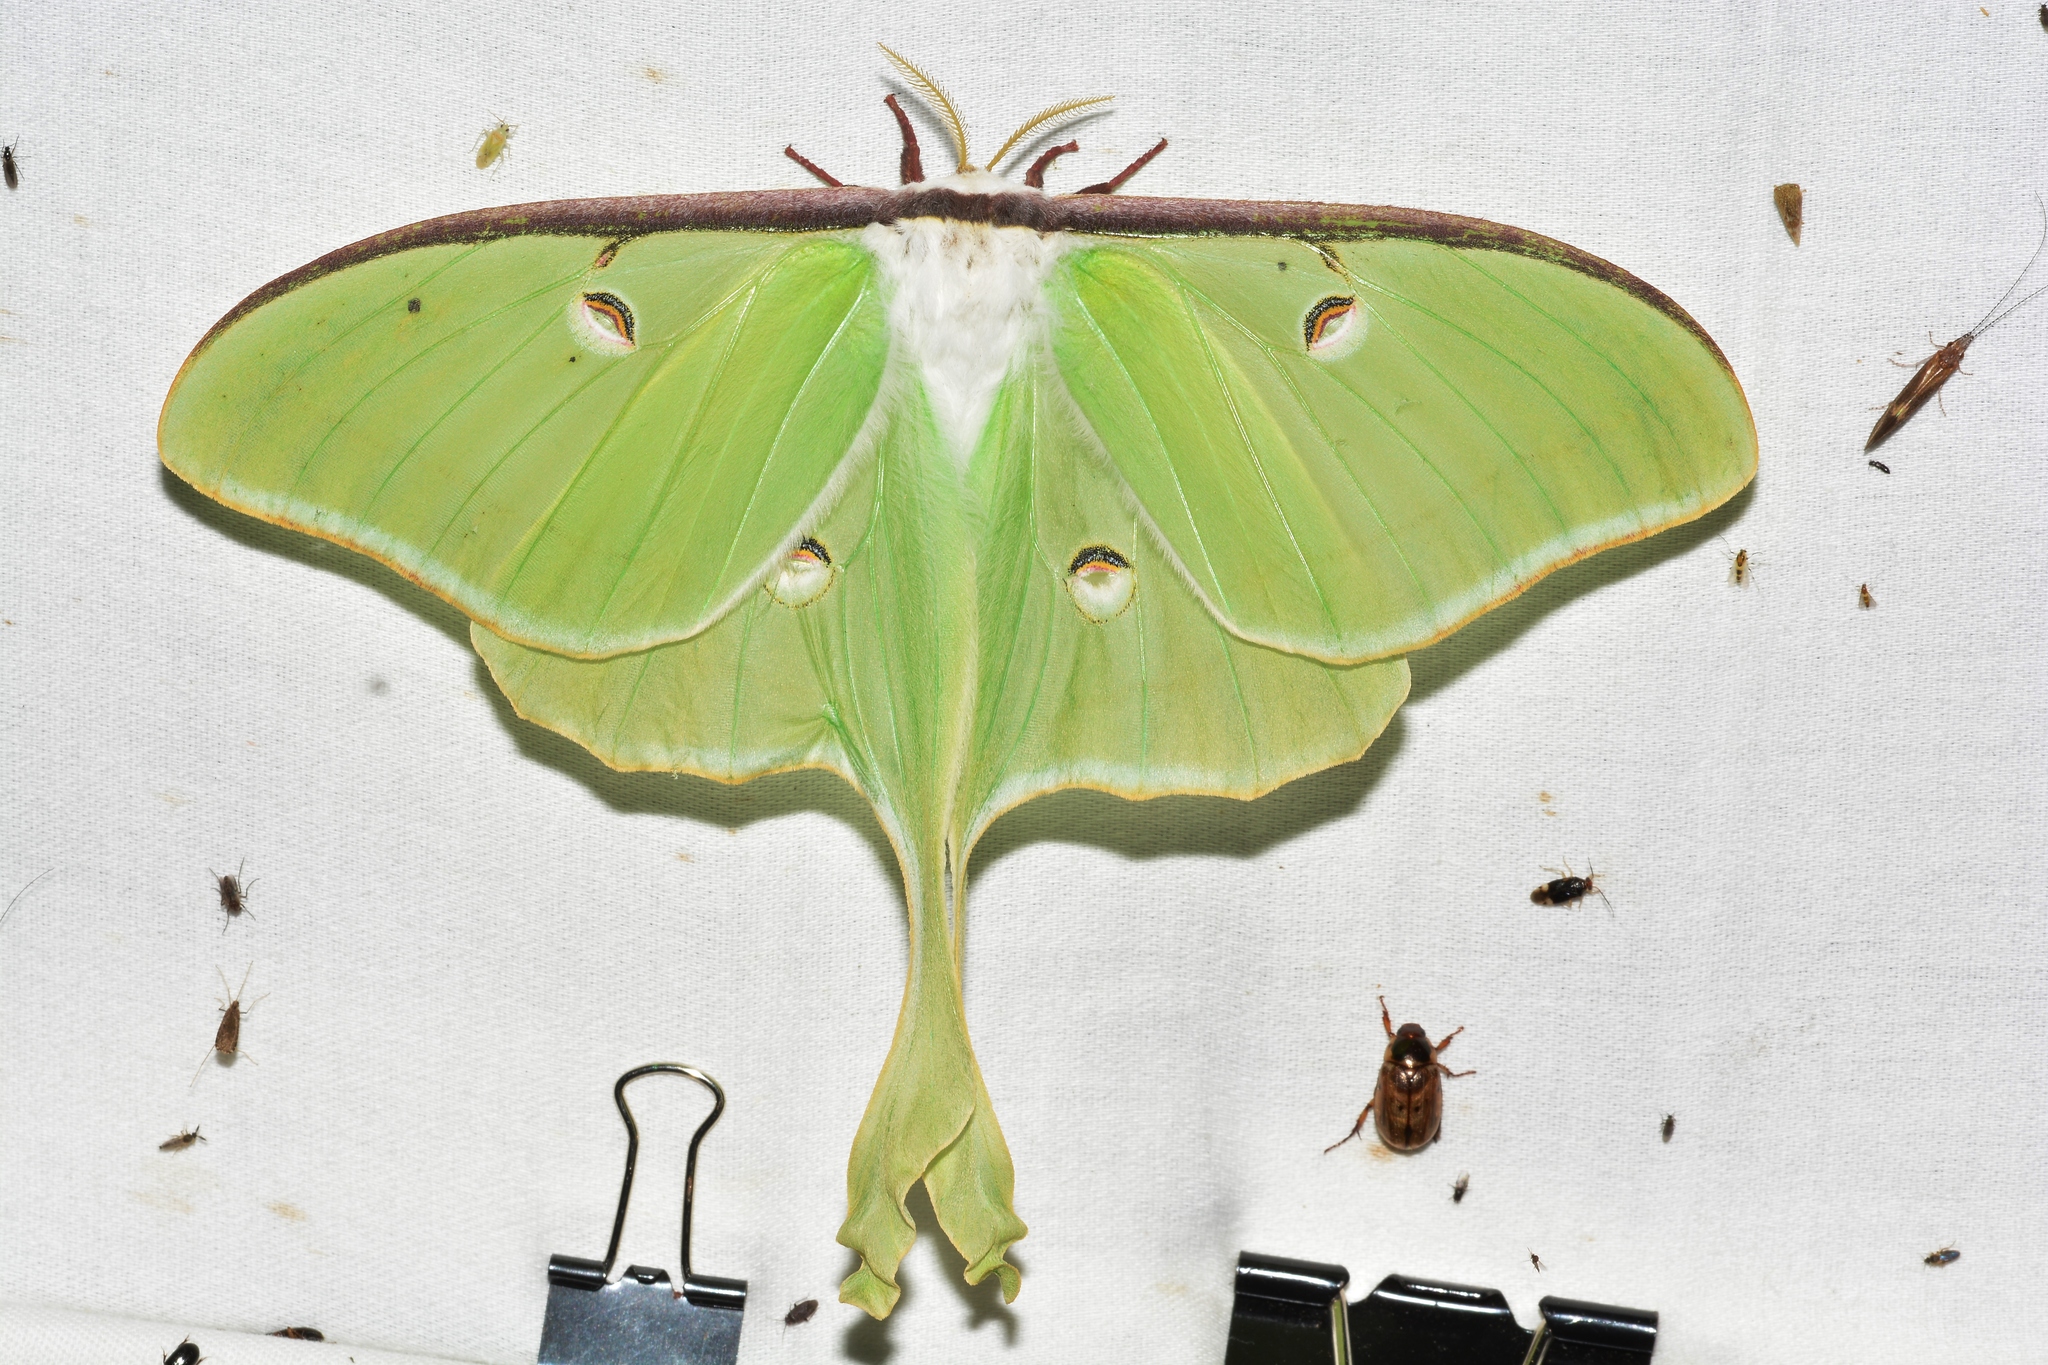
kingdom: Animalia
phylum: Arthropoda
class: Insecta
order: Lepidoptera
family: Saturniidae
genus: Actias
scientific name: Actias luna
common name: Luna moth
